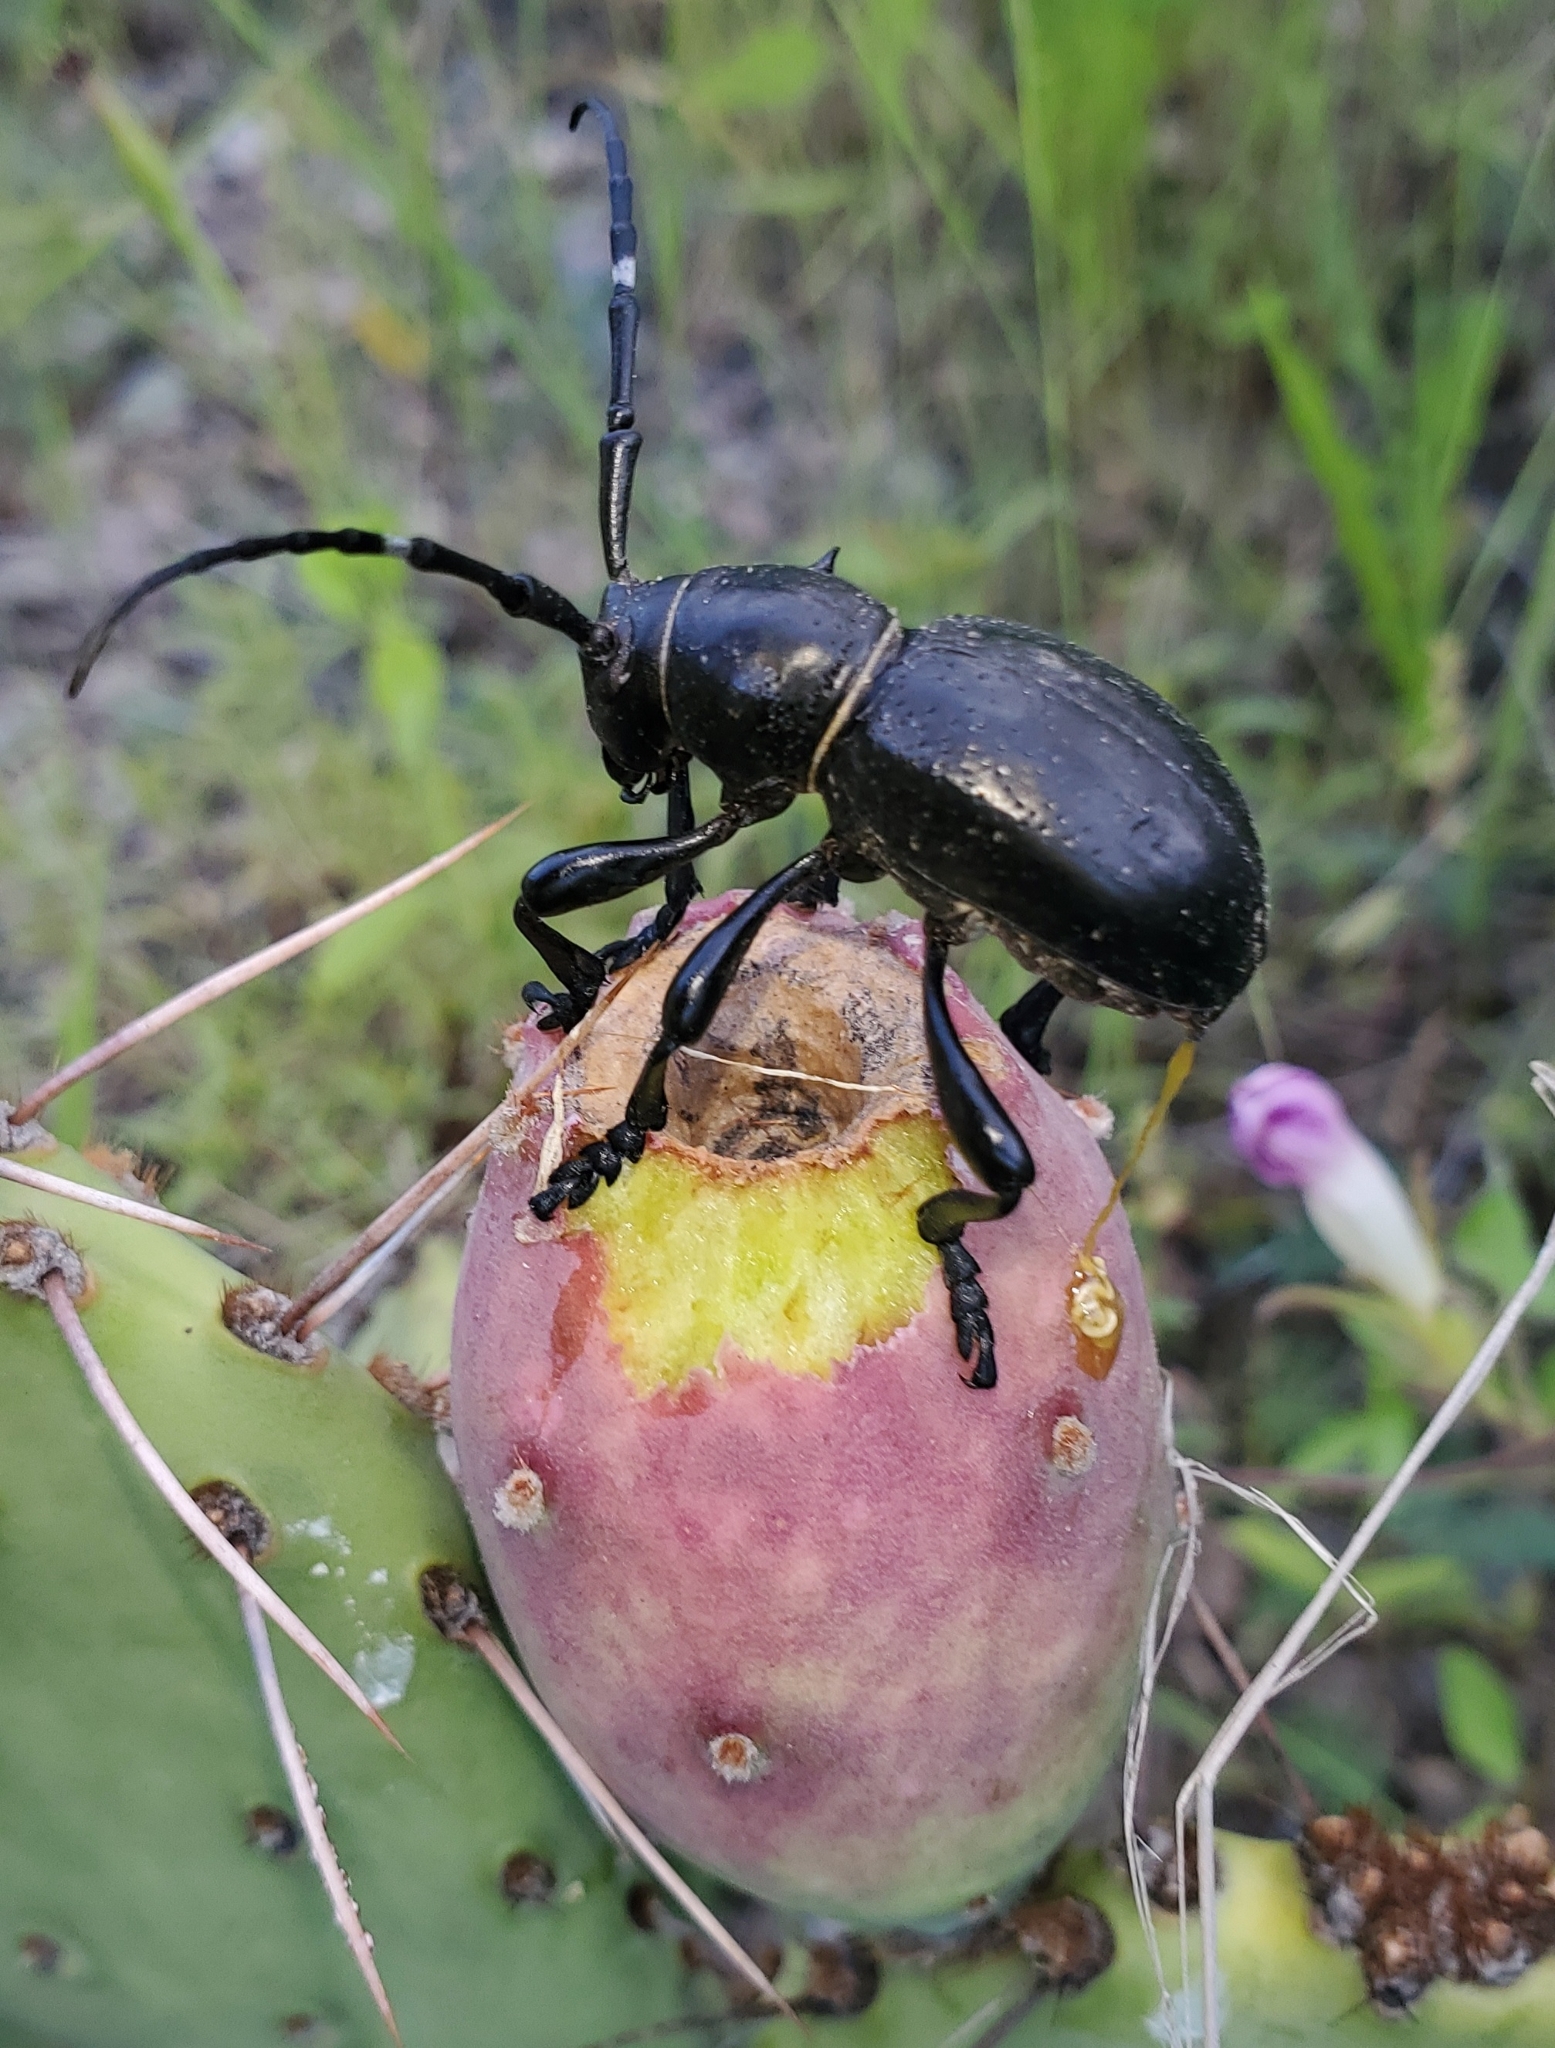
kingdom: Animalia
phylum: Arthropoda
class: Insecta
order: Coleoptera
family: Cerambycidae
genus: Moneilema
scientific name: Moneilema gigas
